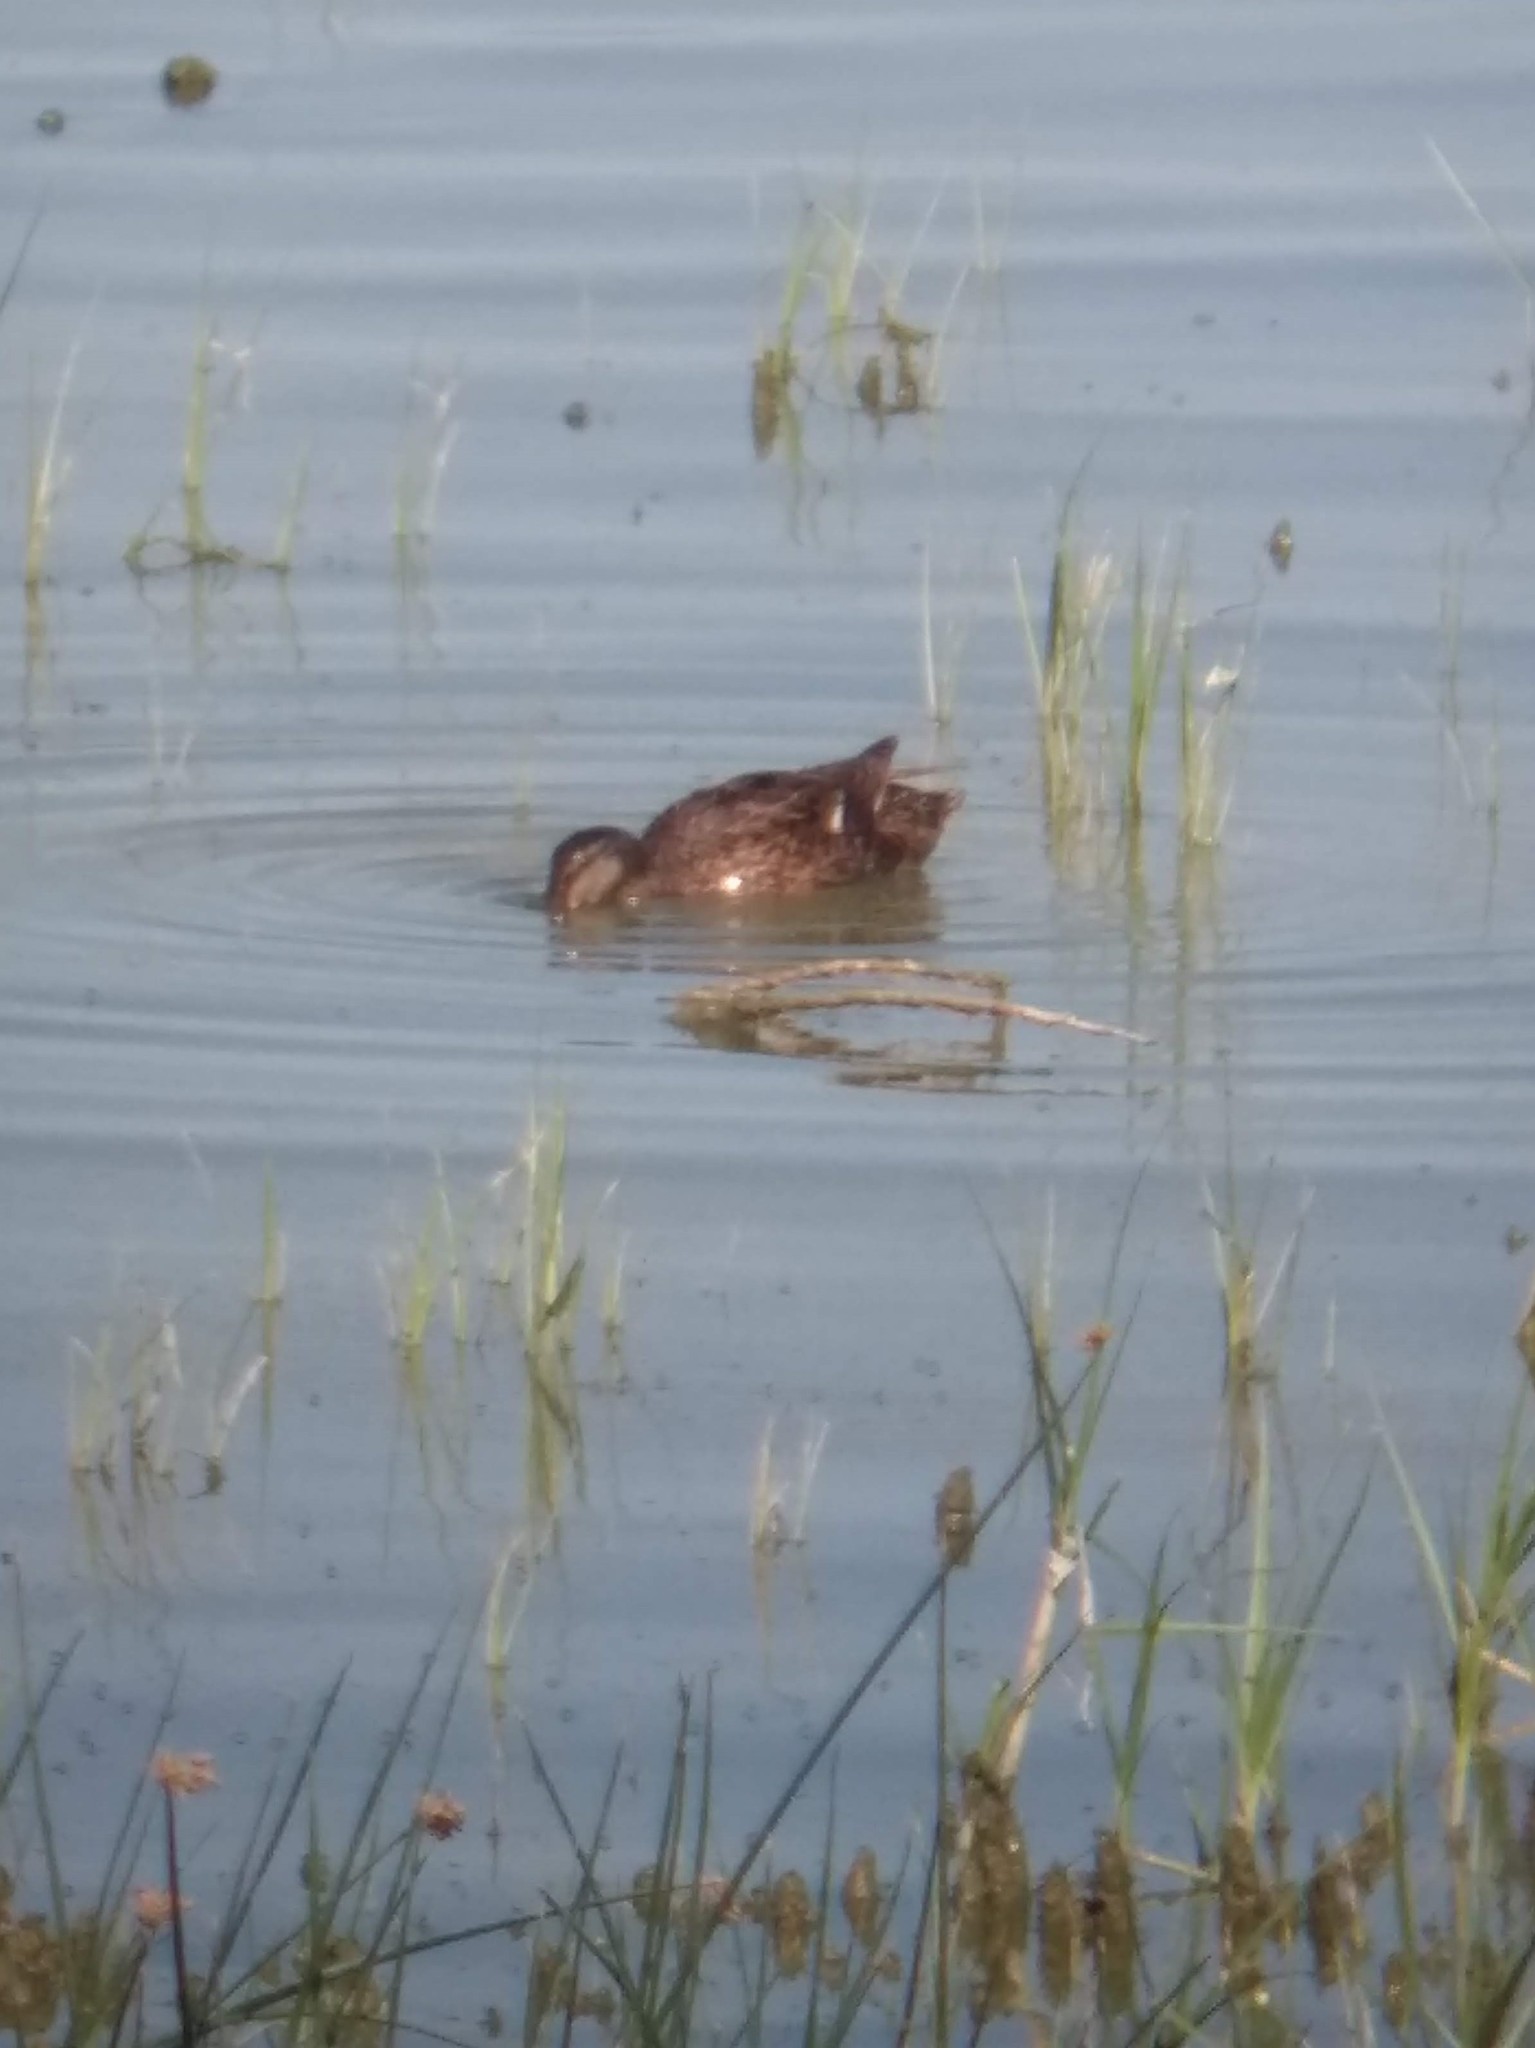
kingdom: Animalia
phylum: Chordata
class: Aves
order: Anseriformes
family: Anatidae
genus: Anas
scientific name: Anas platyrhynchos
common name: Mallard
